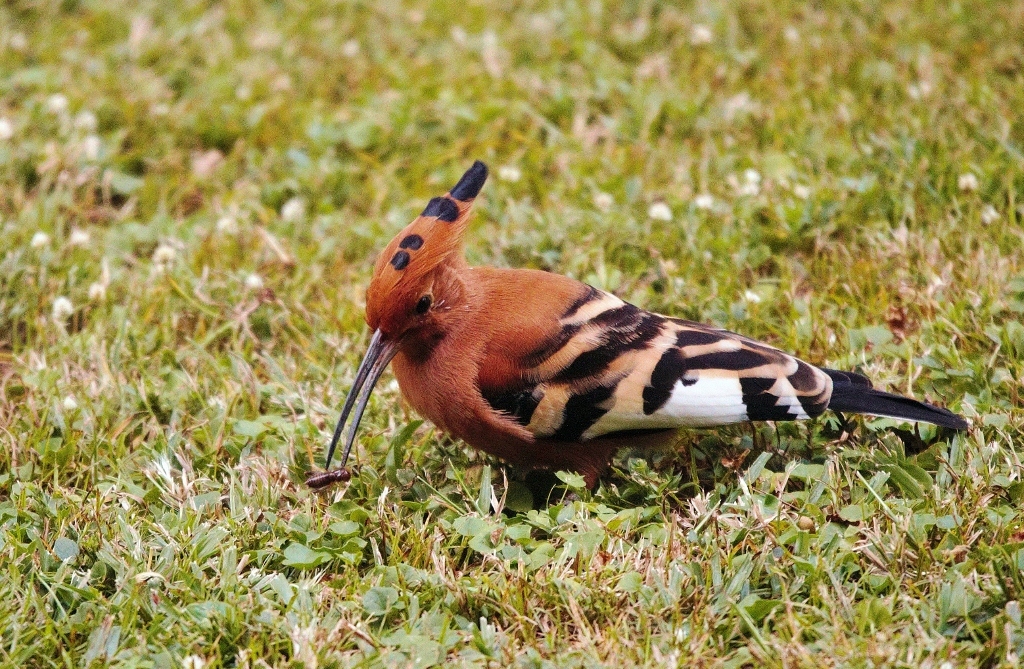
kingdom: Animalia
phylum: Chordata
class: Aves
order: Bucerotiformes
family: Upupidae
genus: Upupa
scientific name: Upupa africana
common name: African hoopoe
